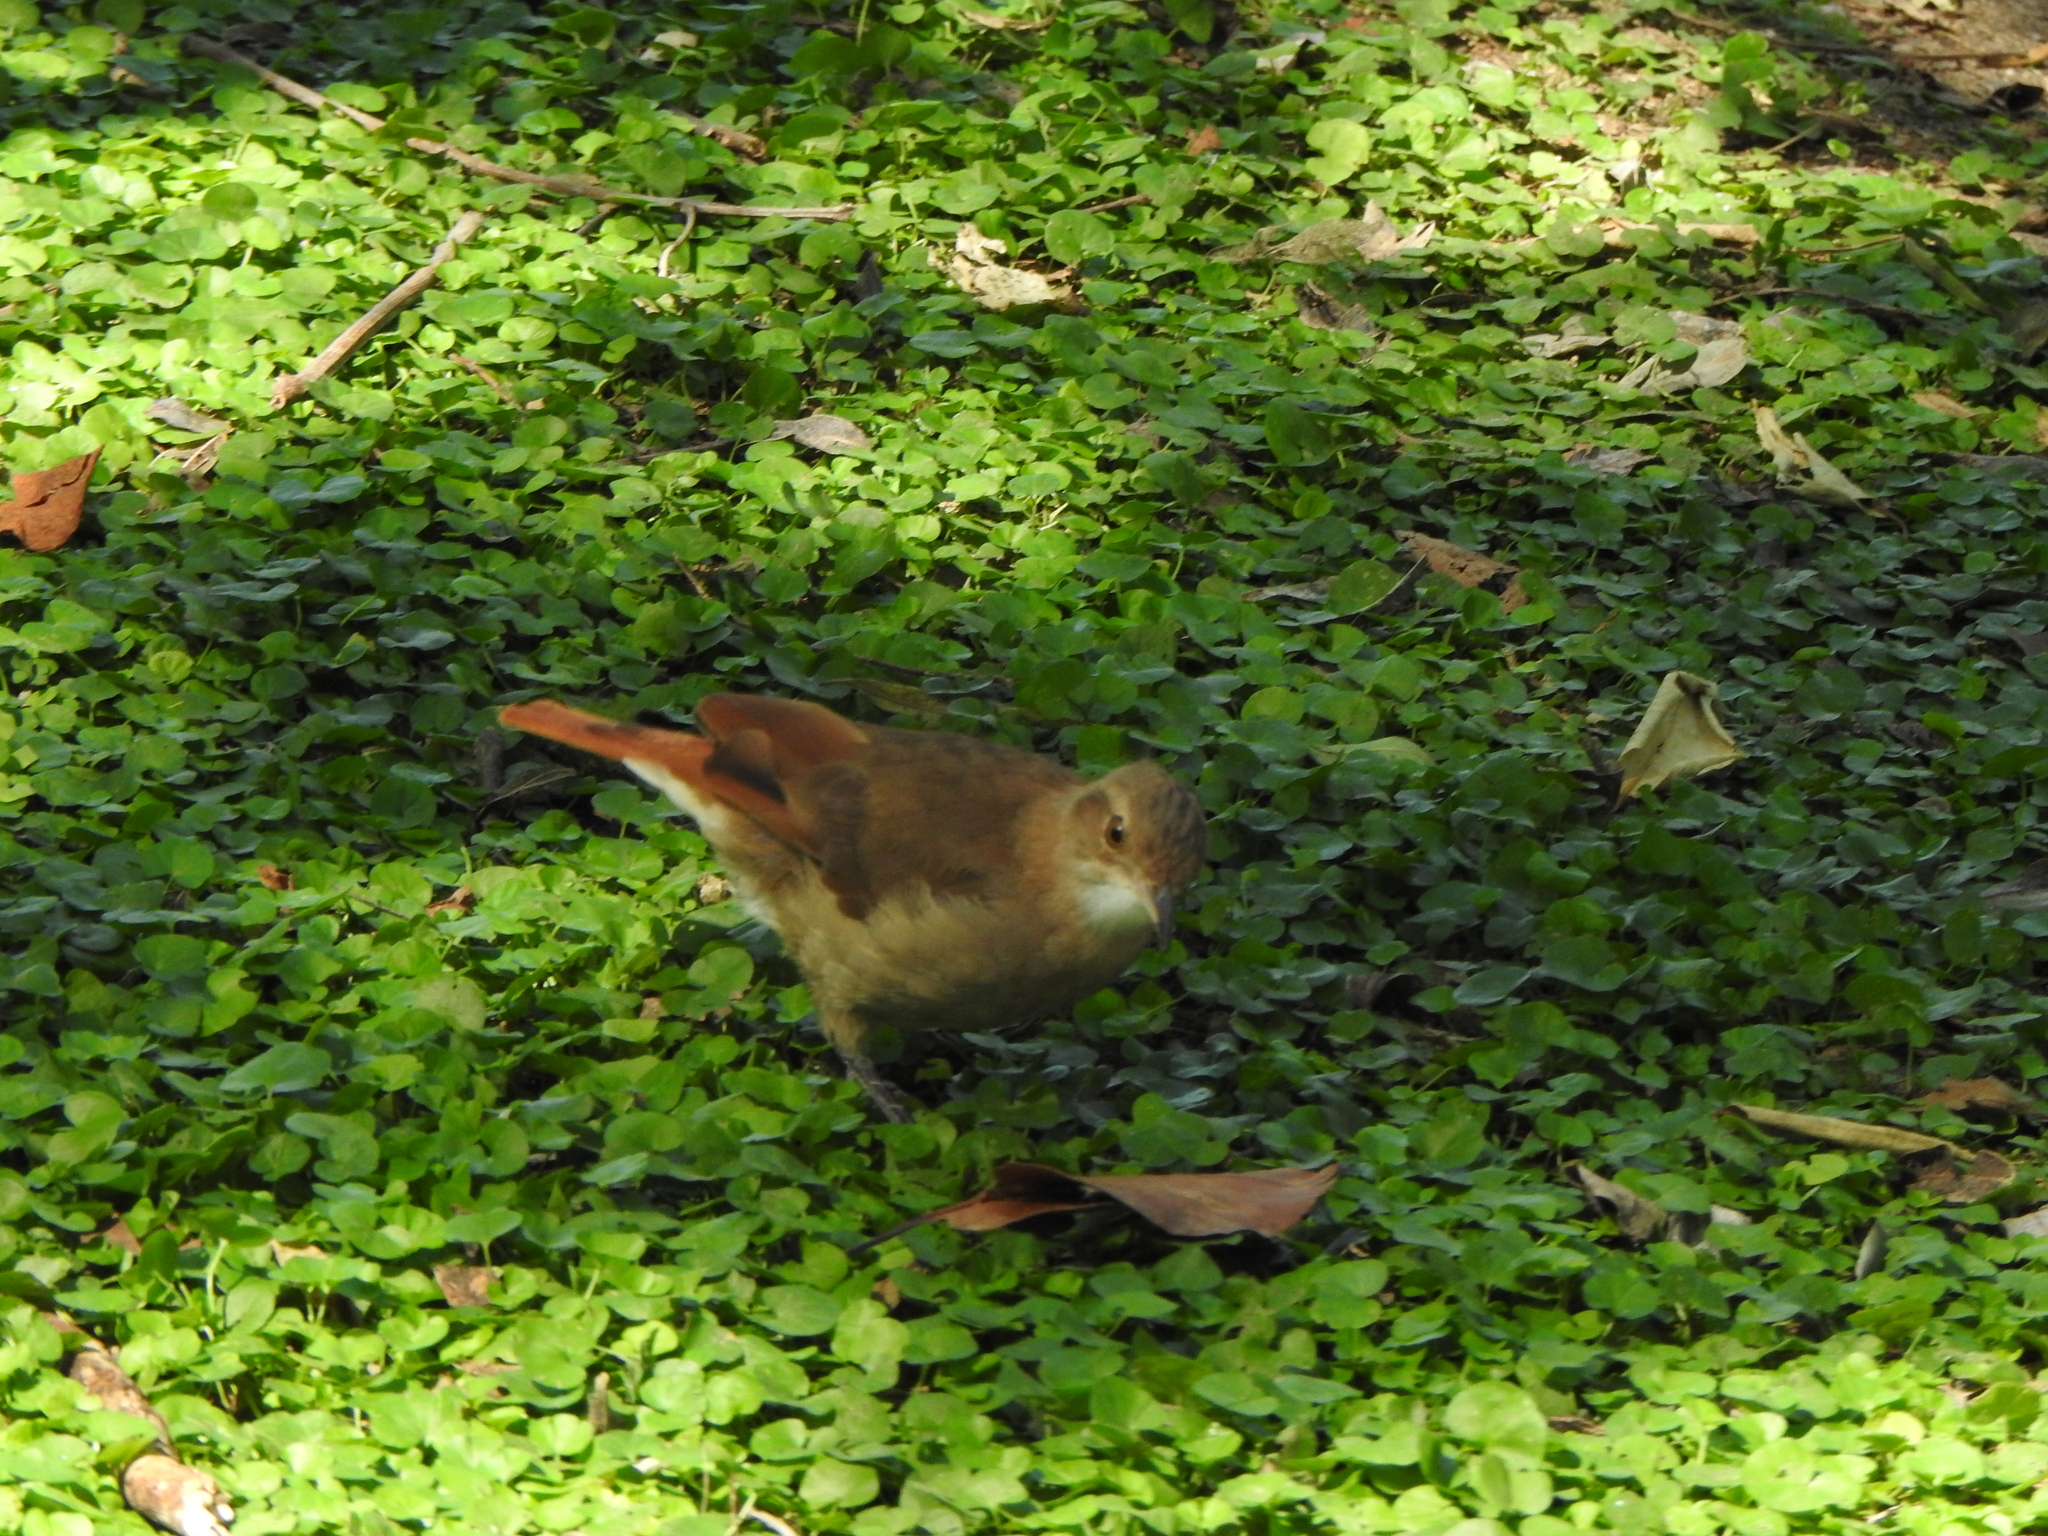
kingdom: Animalia
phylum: Chordata
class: Aves
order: Passeriformes
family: Furnariidae
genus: Furnarius
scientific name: Furnarius rufus
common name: Rufous hornero
